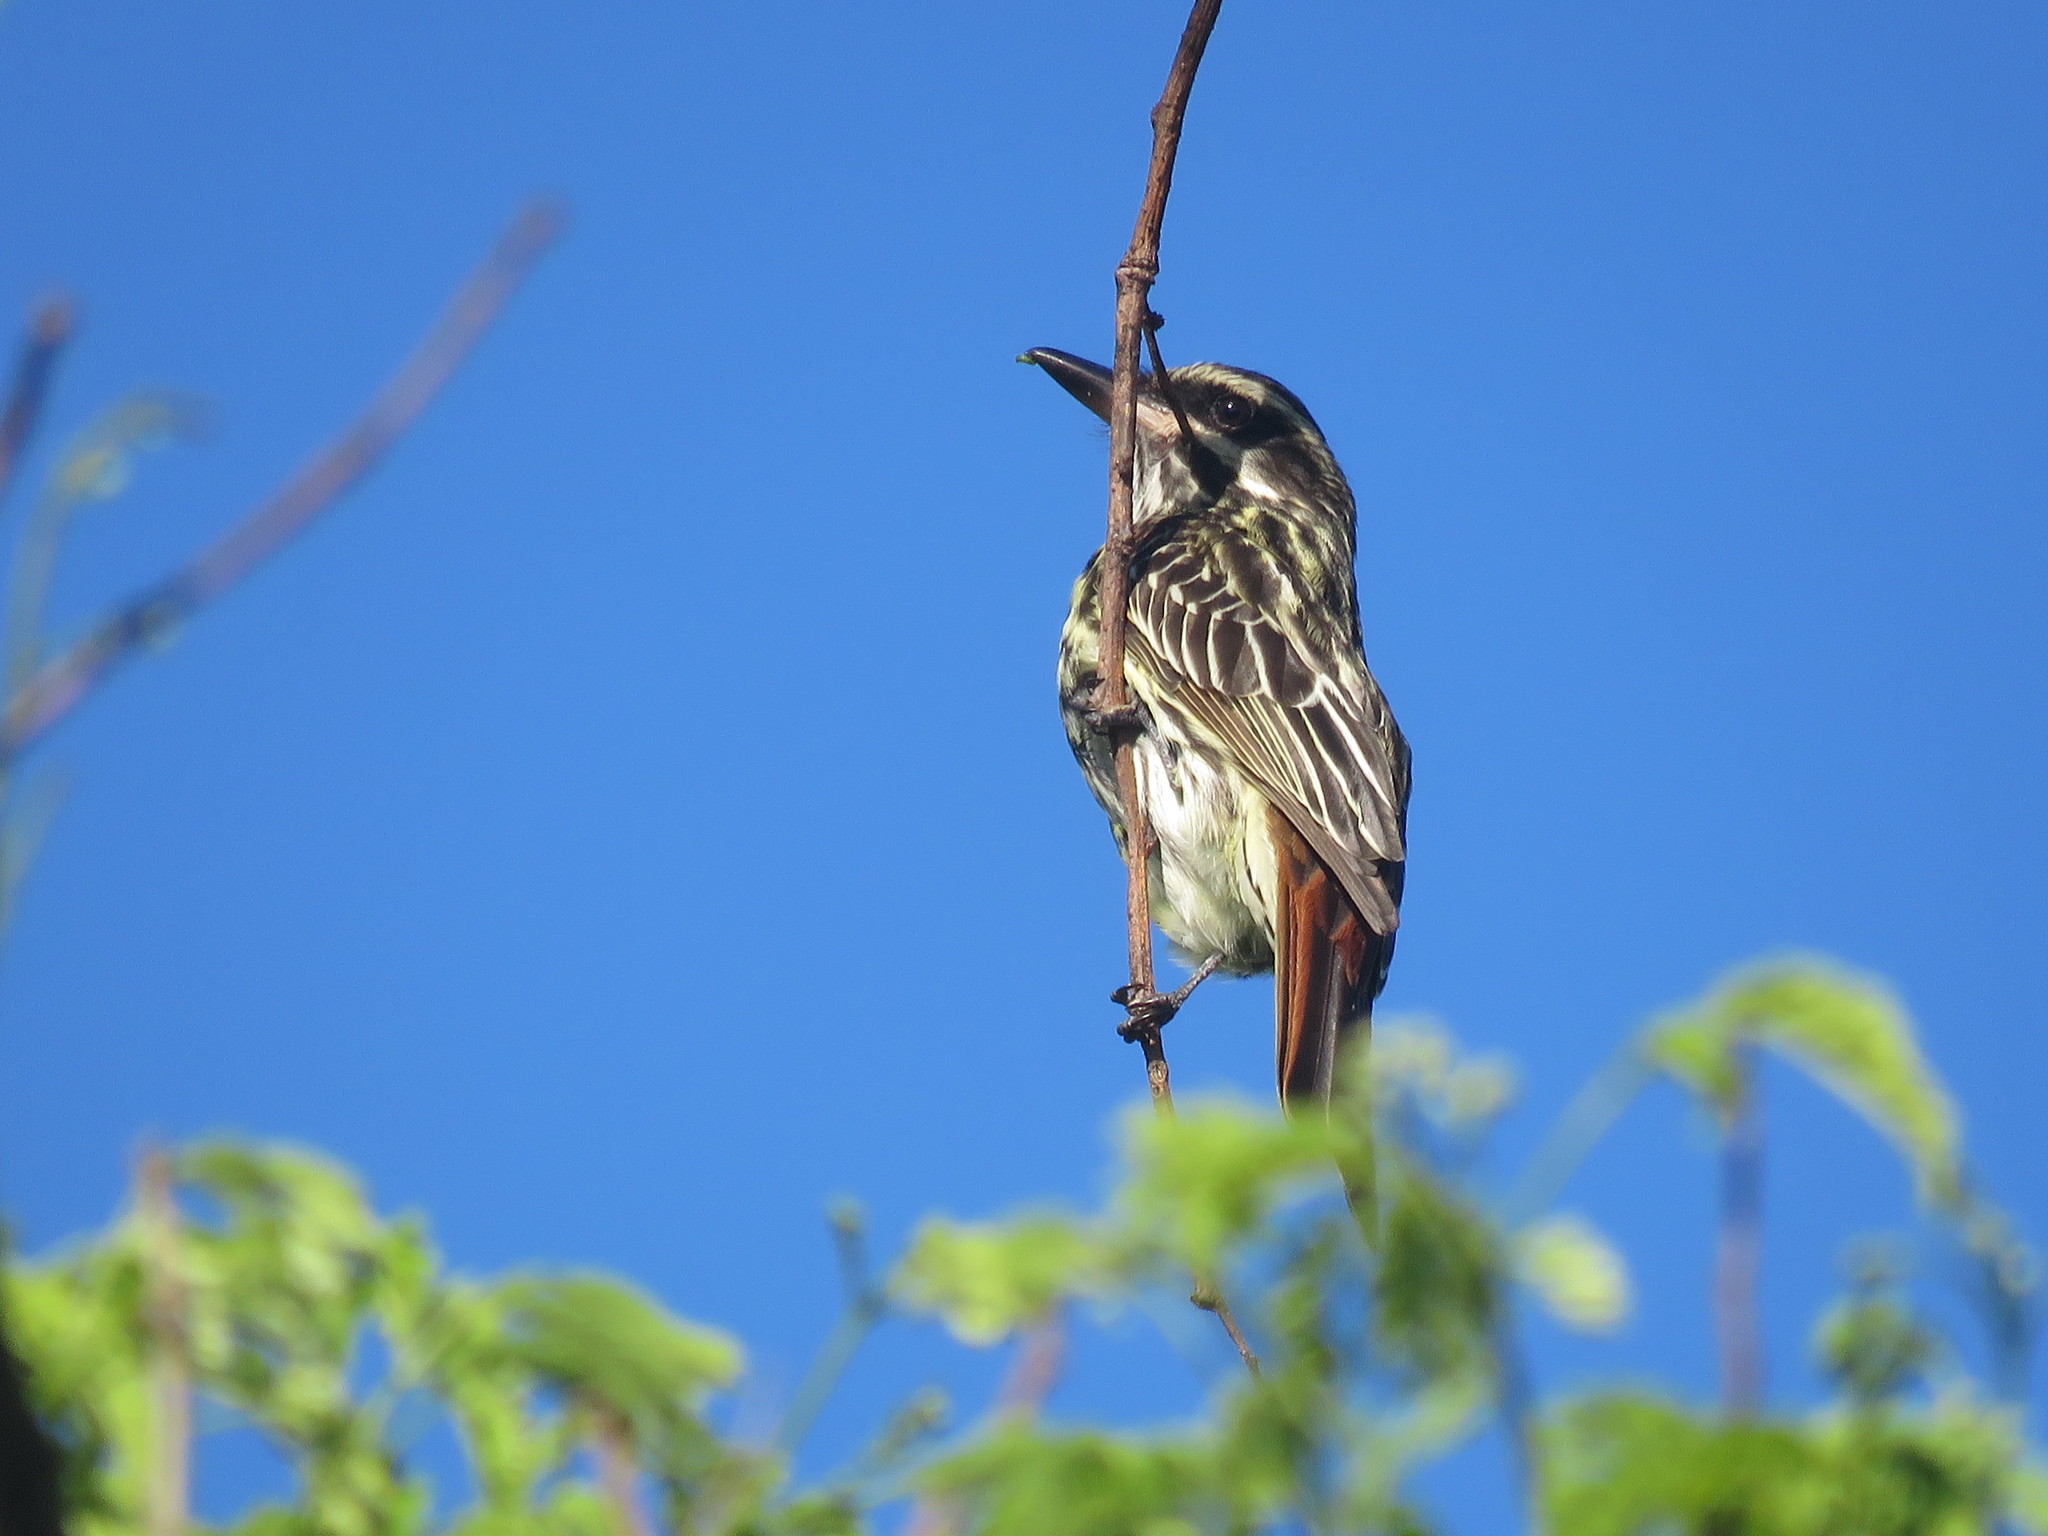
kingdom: Animalia
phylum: Chordata
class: Aves
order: Passeriformes
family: Tyrannidae
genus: Myiodynastes
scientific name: Myiodynastes maculatus
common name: Streaked flycatcher
